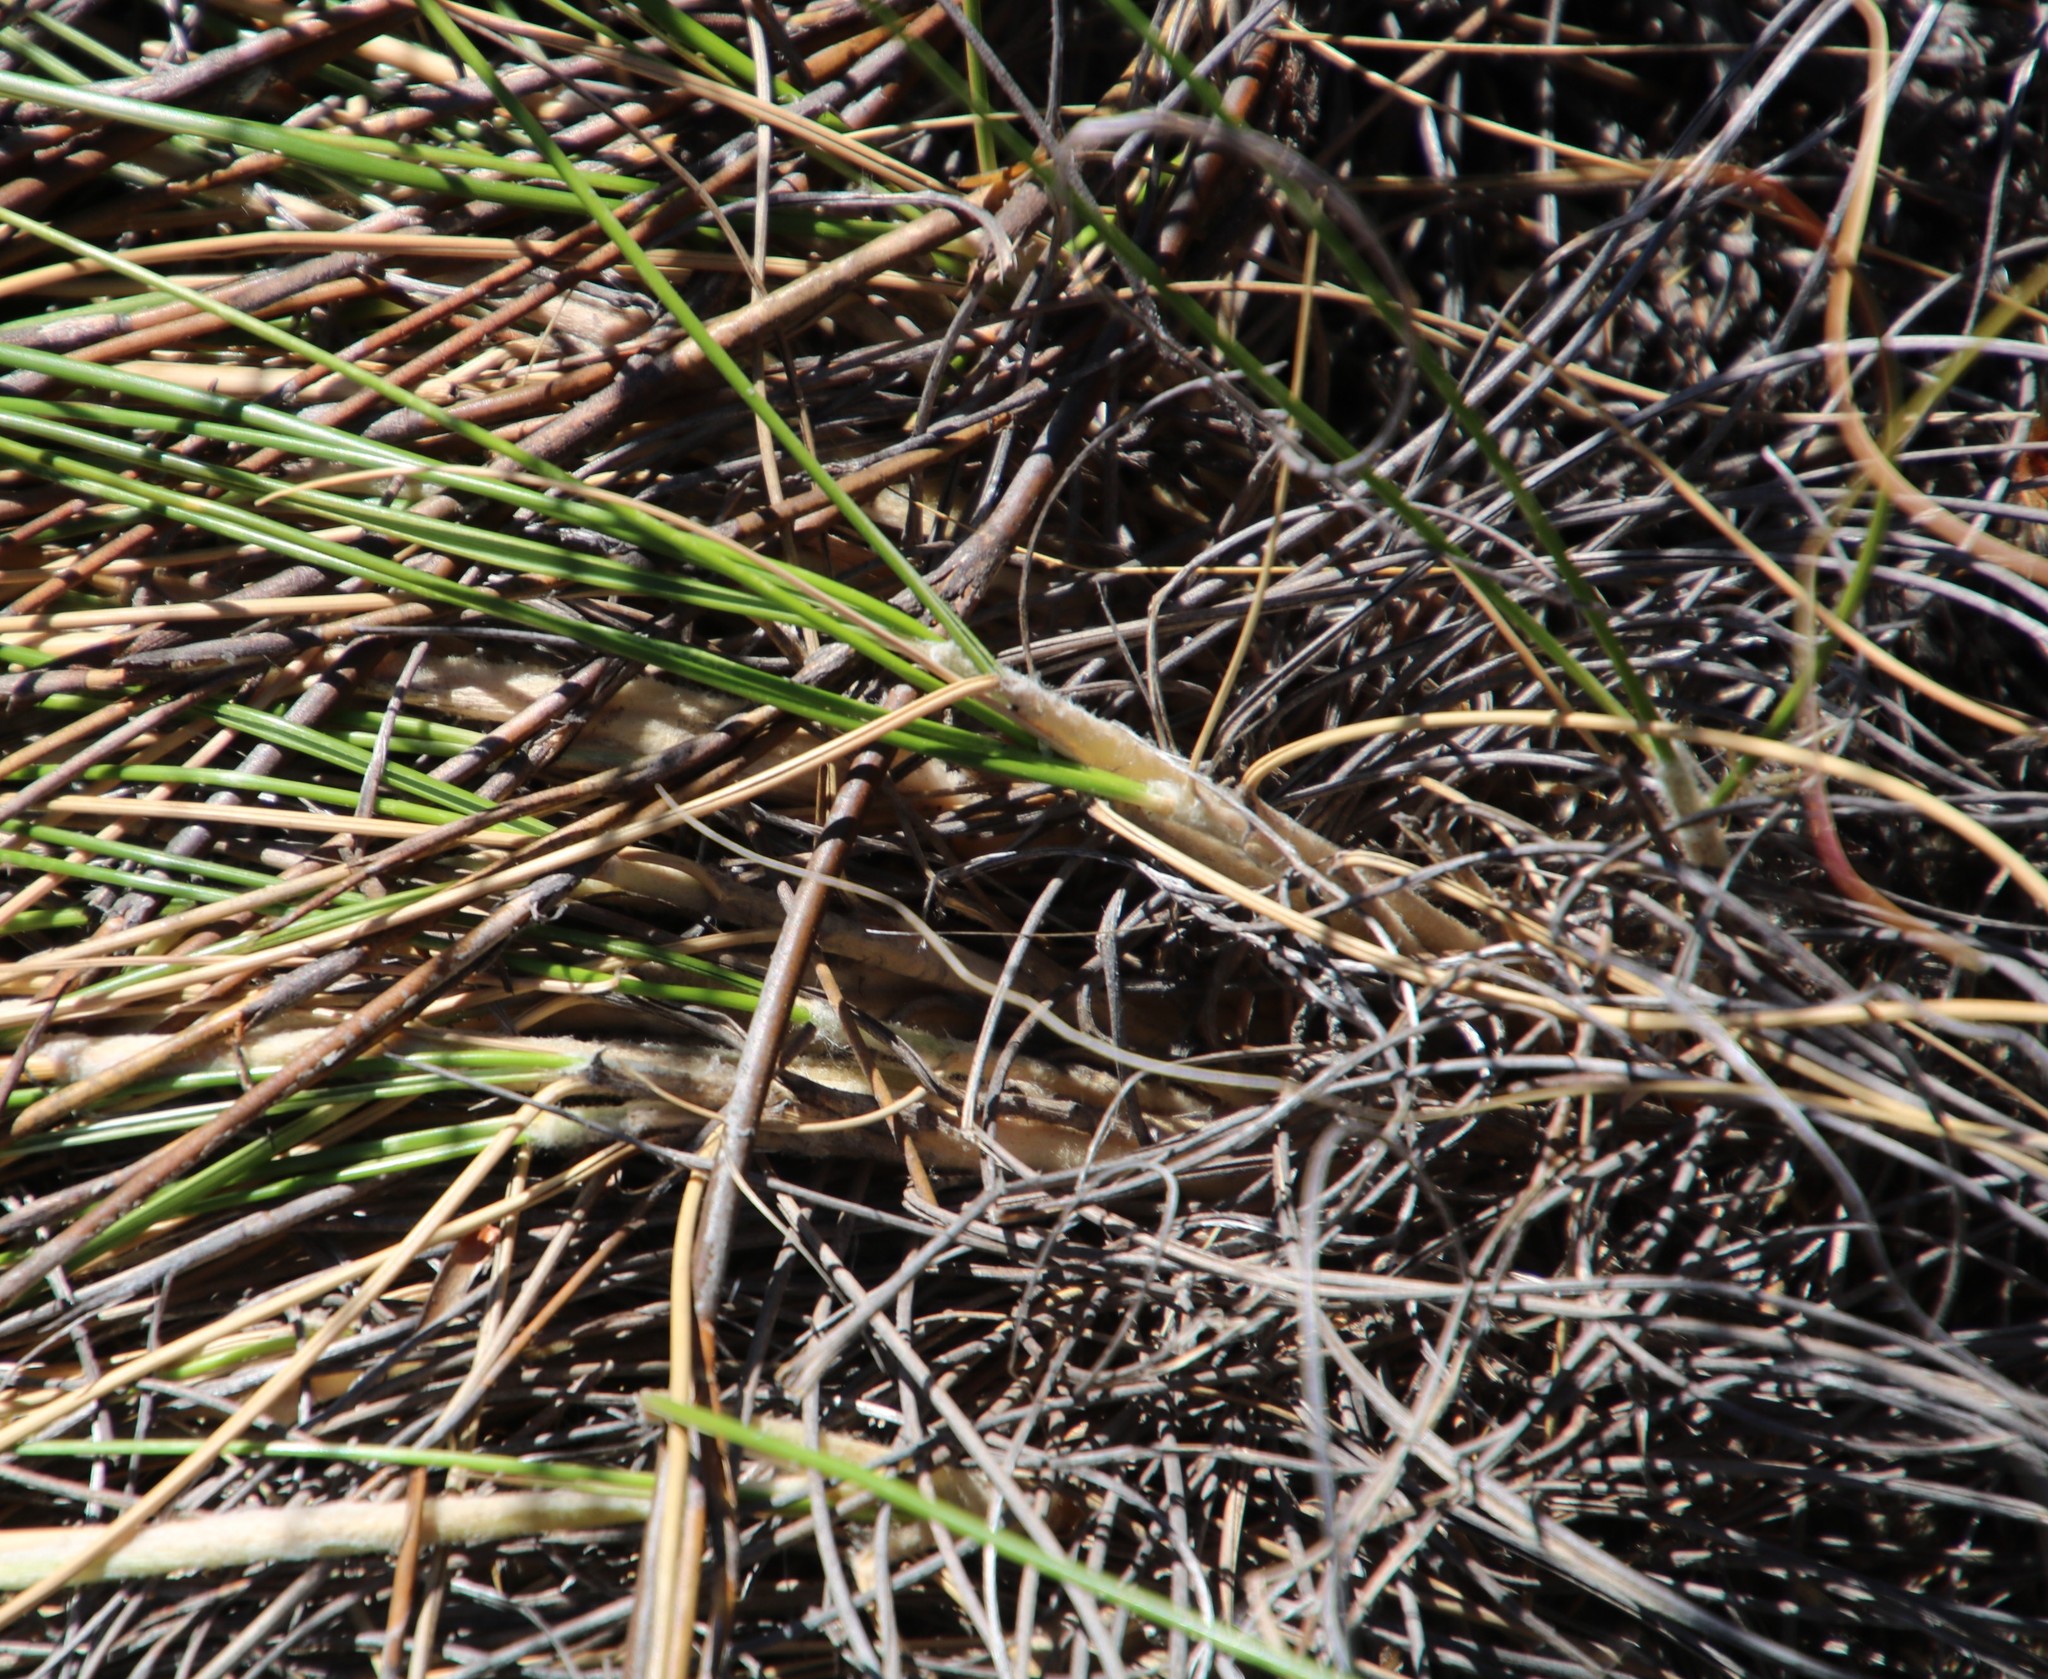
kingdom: Plantae
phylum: Tracheophyta
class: Liliopsida
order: Poales
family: Poaceae
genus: Pentameris
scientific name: Pentameris eriostoma
